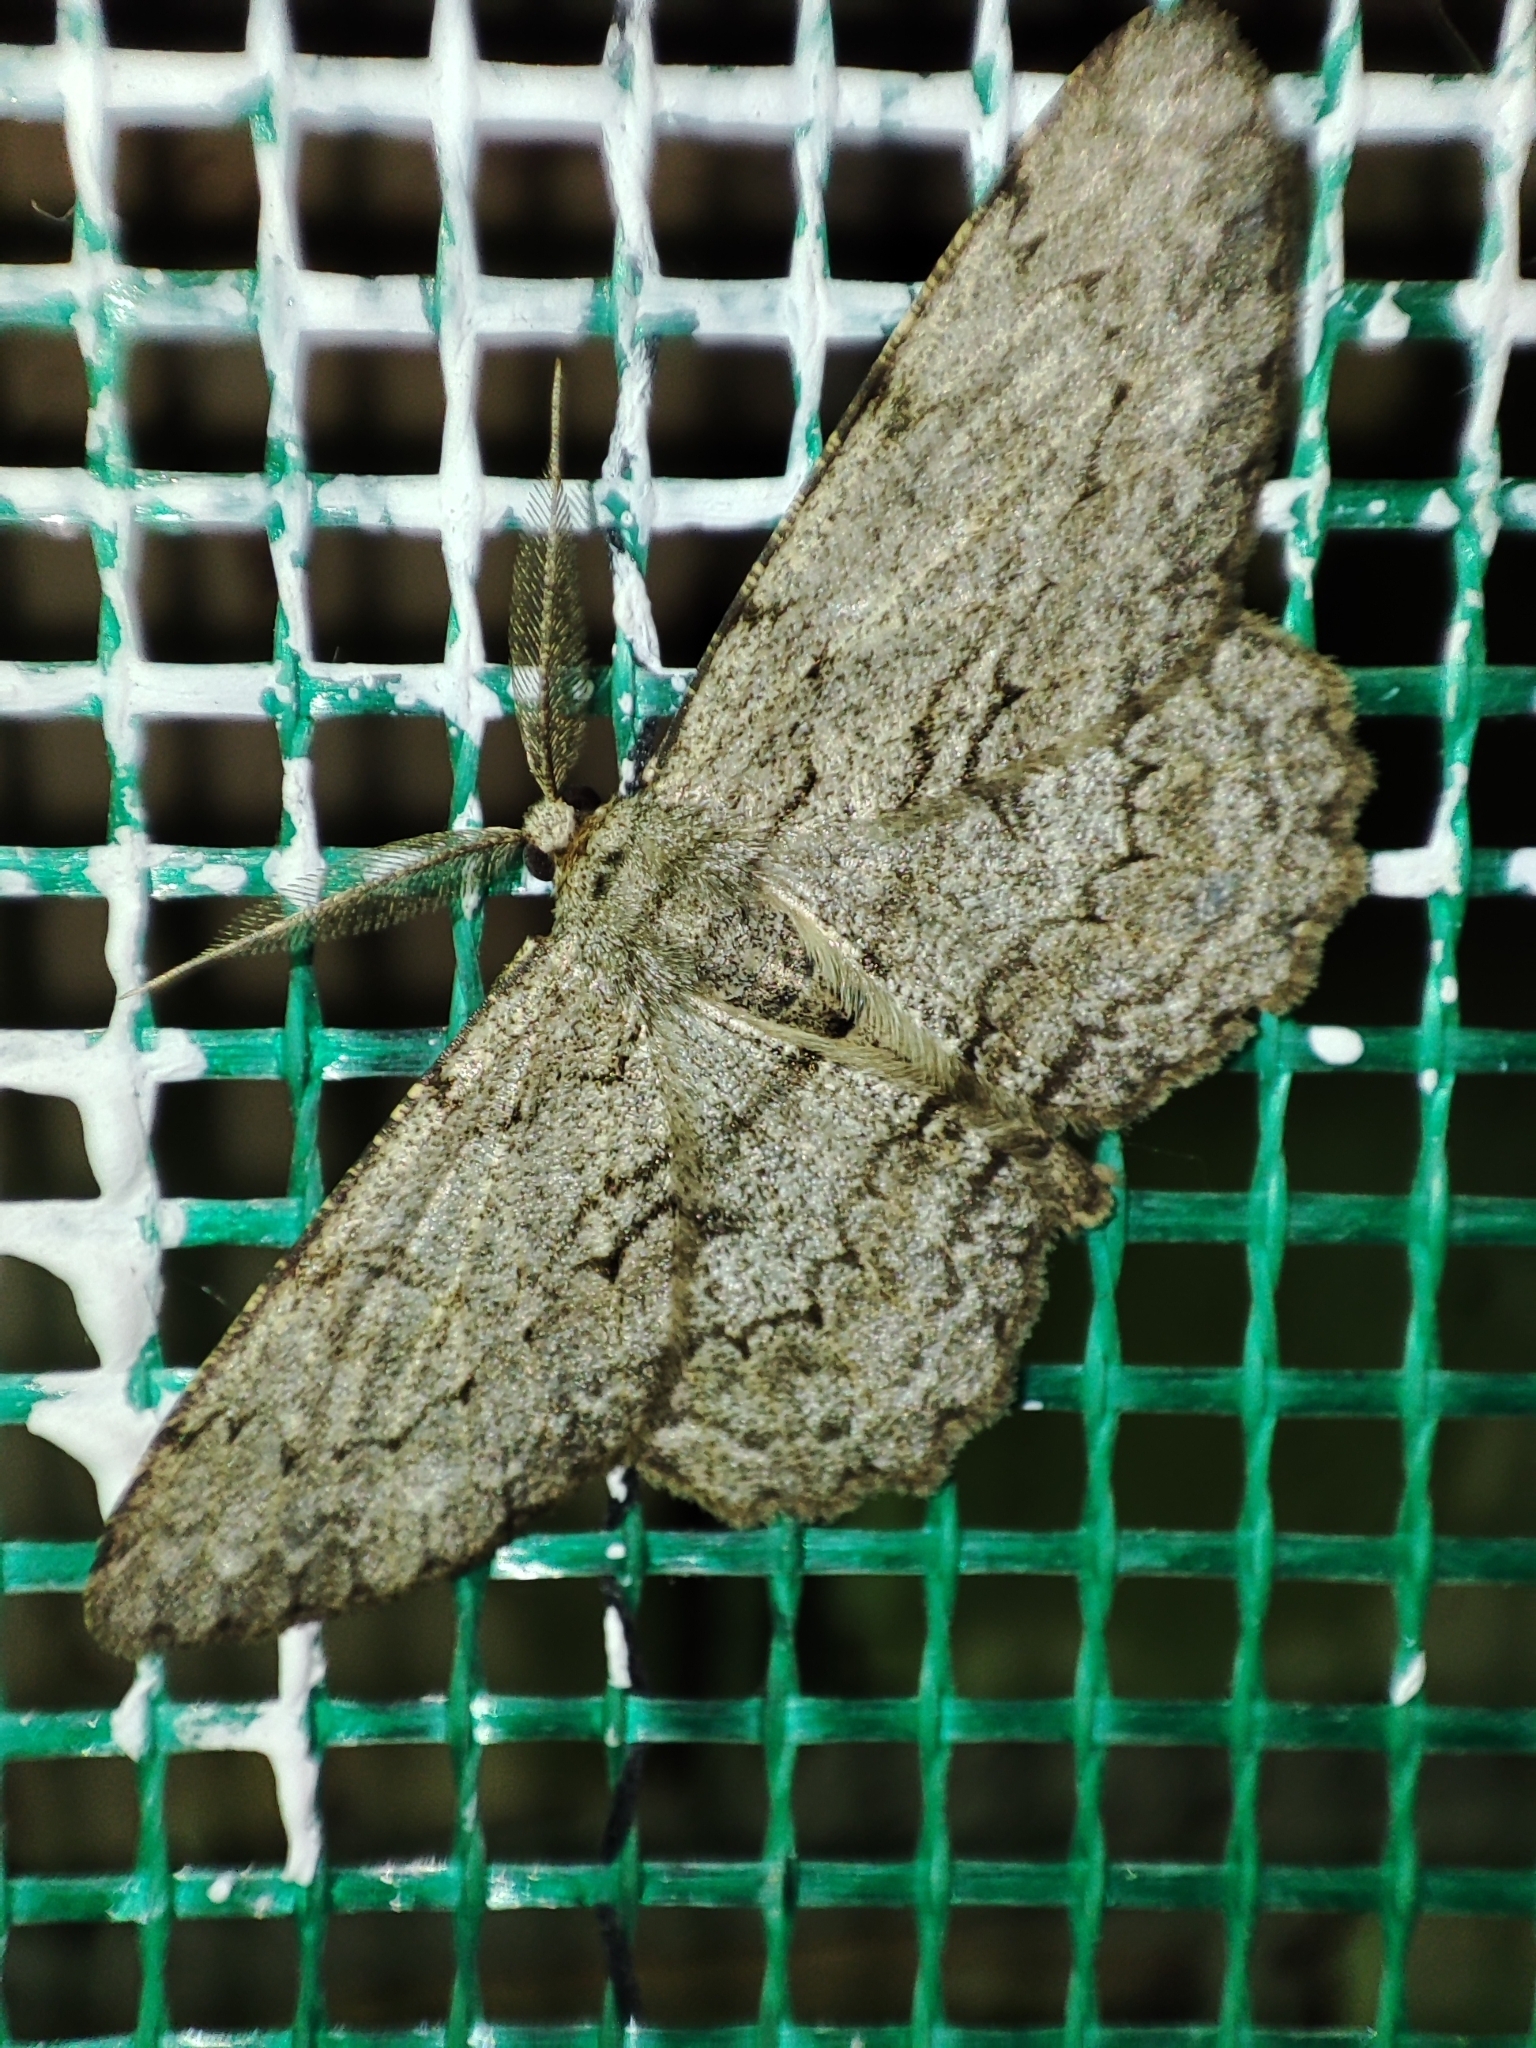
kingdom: Animalia
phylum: Arthropoda
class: Insecta
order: Lepidoptera
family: Geometridae
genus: Hypomecis
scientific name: Hypomecis punctinalis
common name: Pale oak beauty
